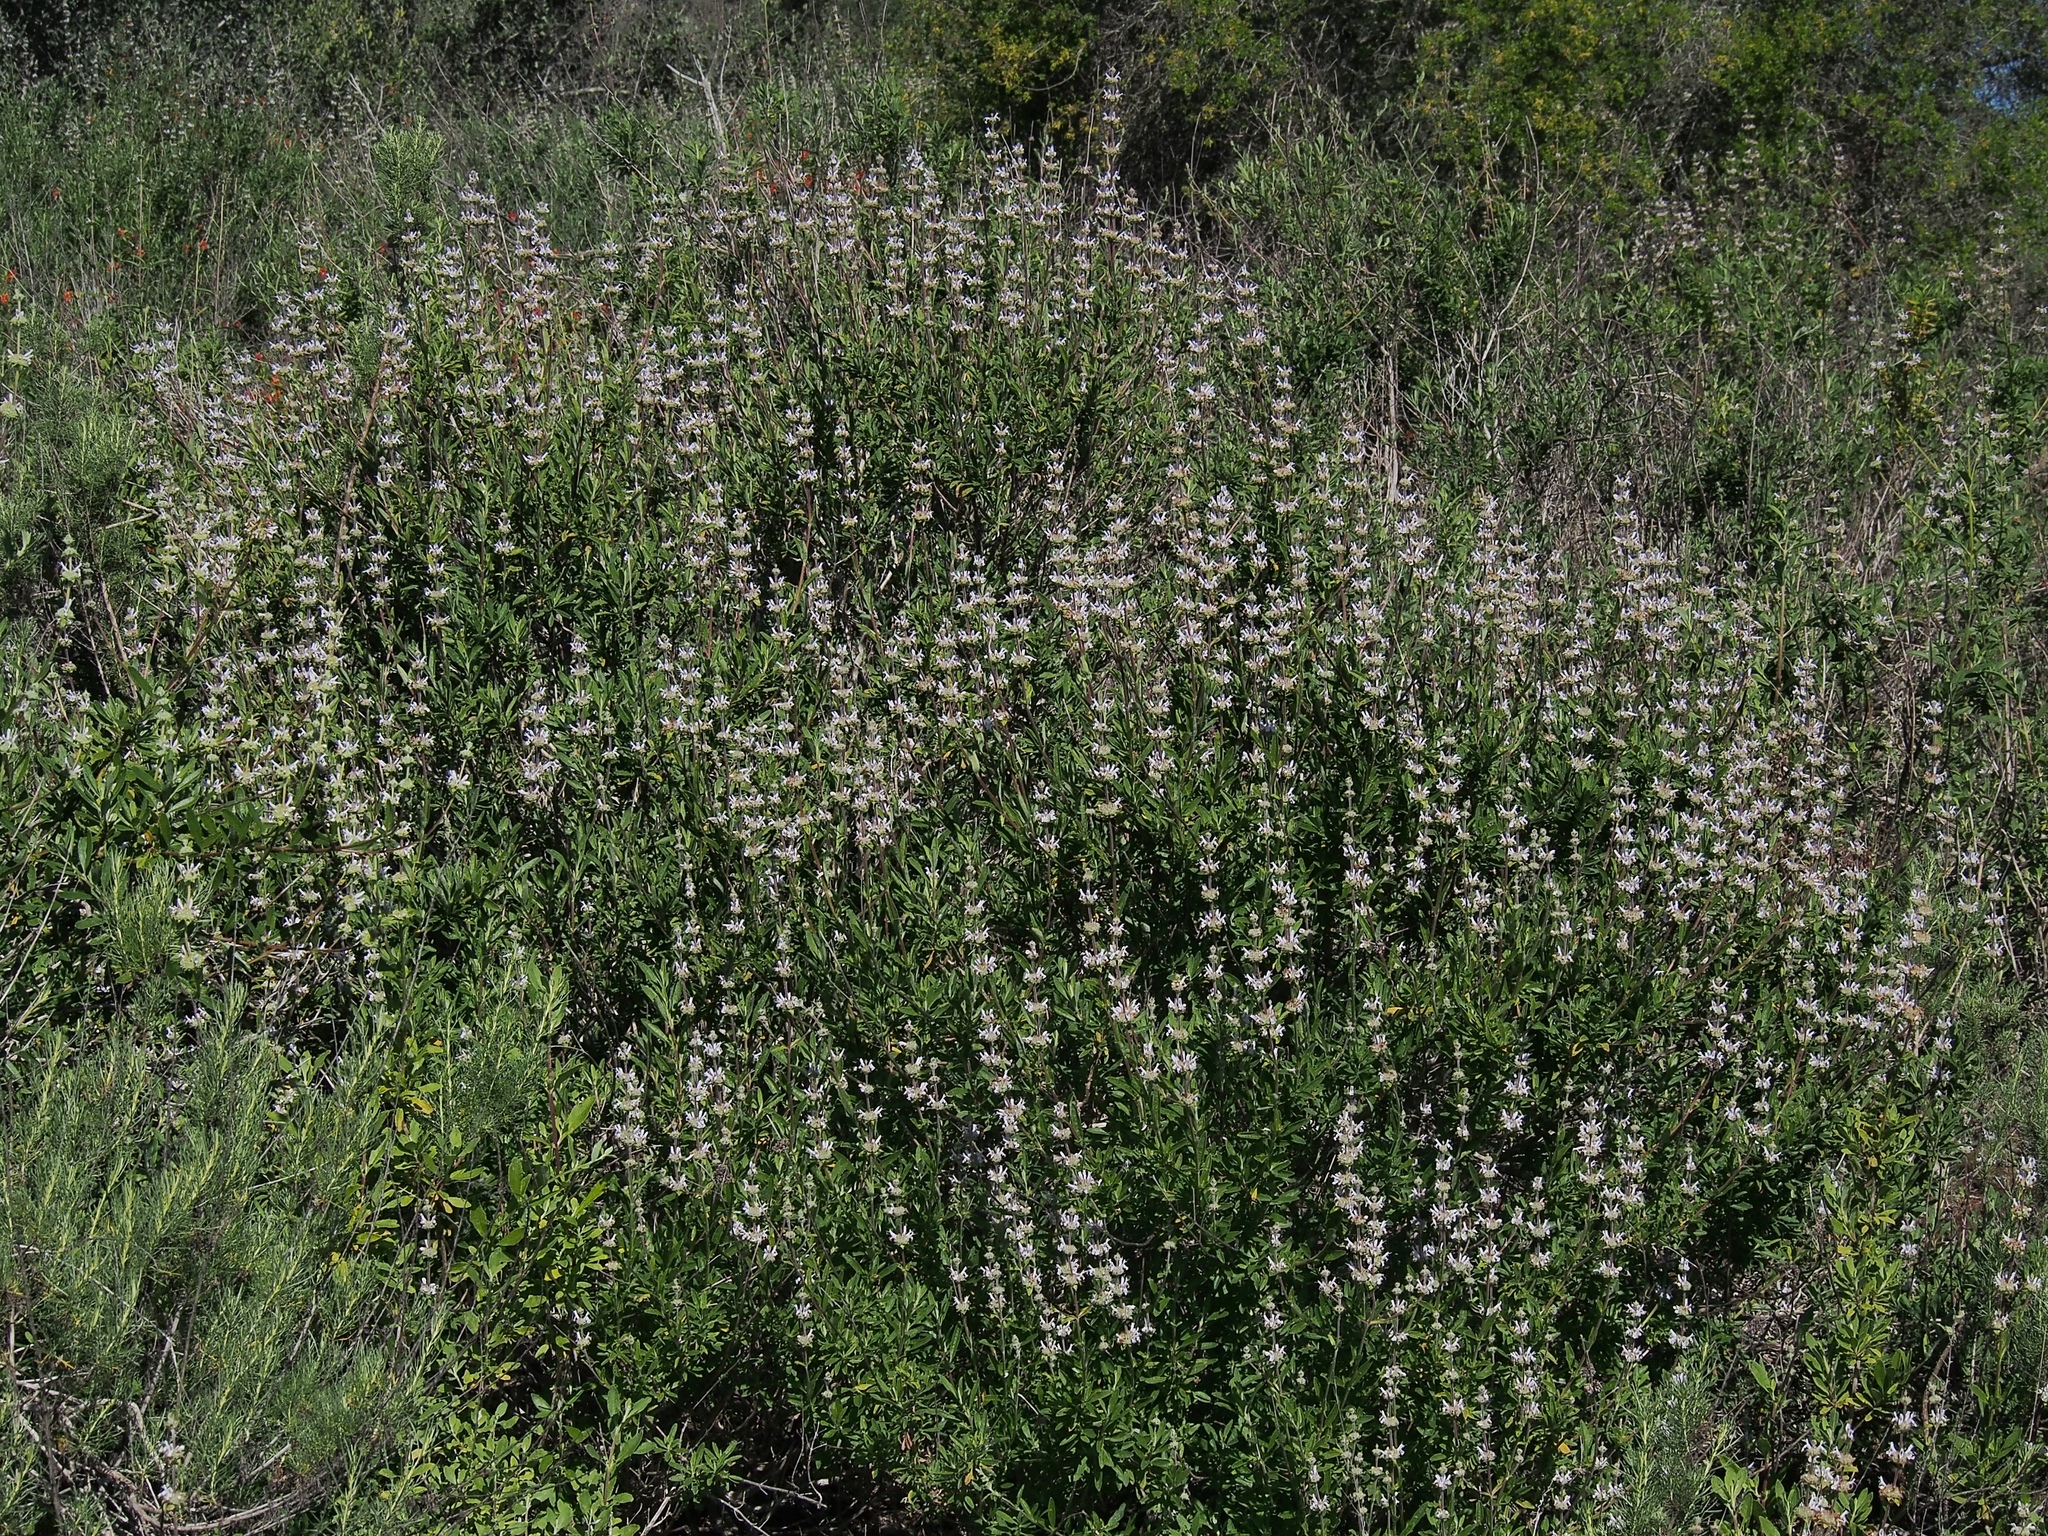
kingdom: Plantae
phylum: Tracheophyta
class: Magnoliopsida
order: Lamiales
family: Lamiaceae
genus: Salvia
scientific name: Salvia mellifera
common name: Black sage
